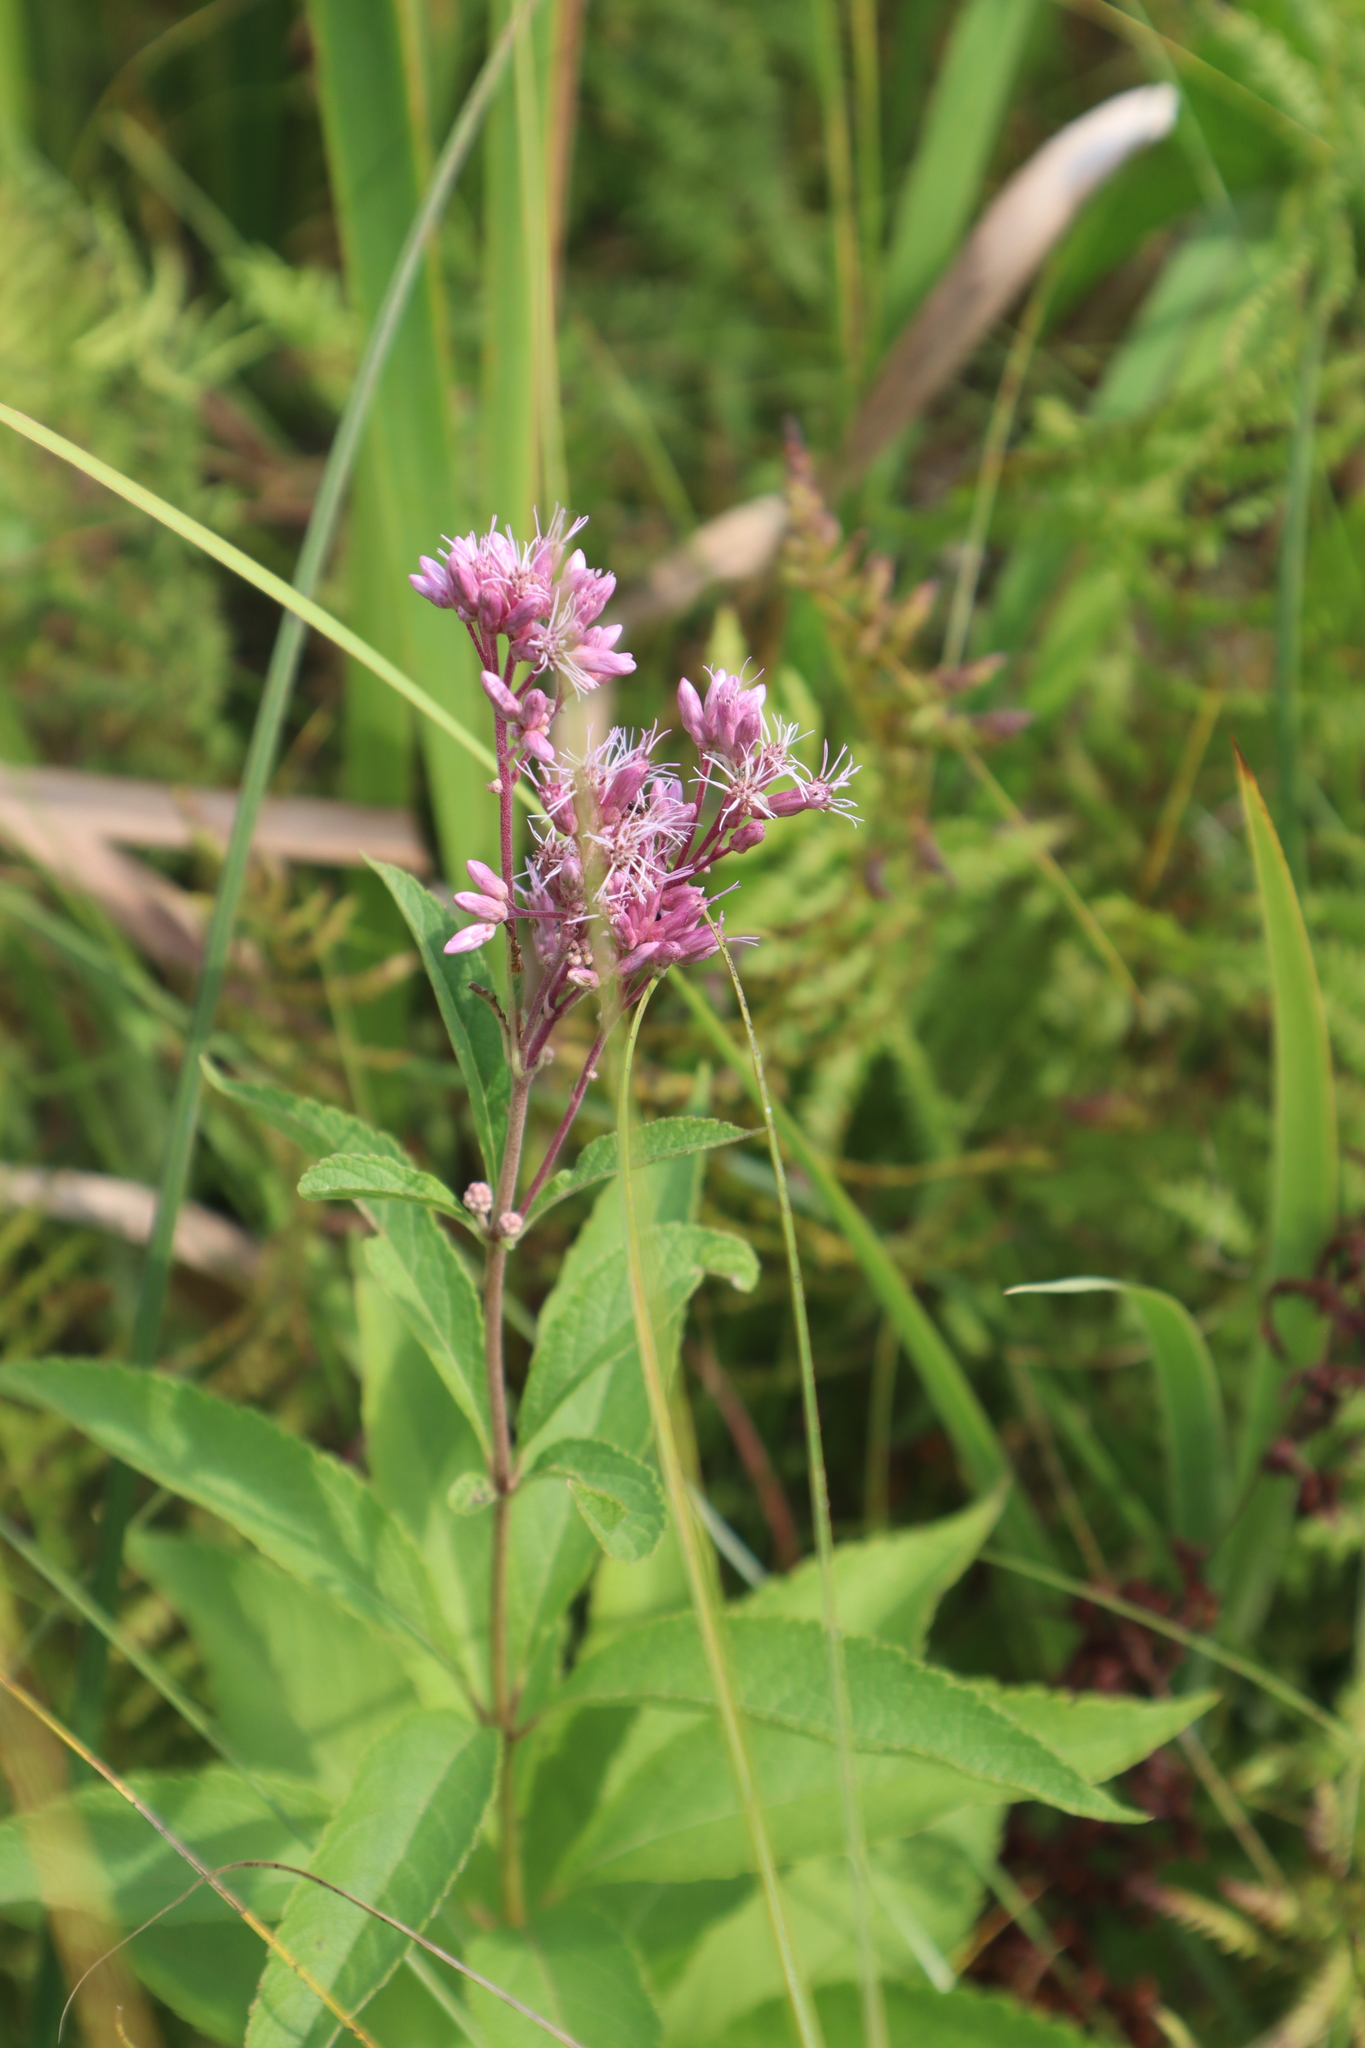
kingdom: Plantae
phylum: Tracheophyta
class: Magnoliopsida
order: Asterales
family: Asteraceae
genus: Eutrochium
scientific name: Eutrochium maculatum
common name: Spotted joe pye weed
